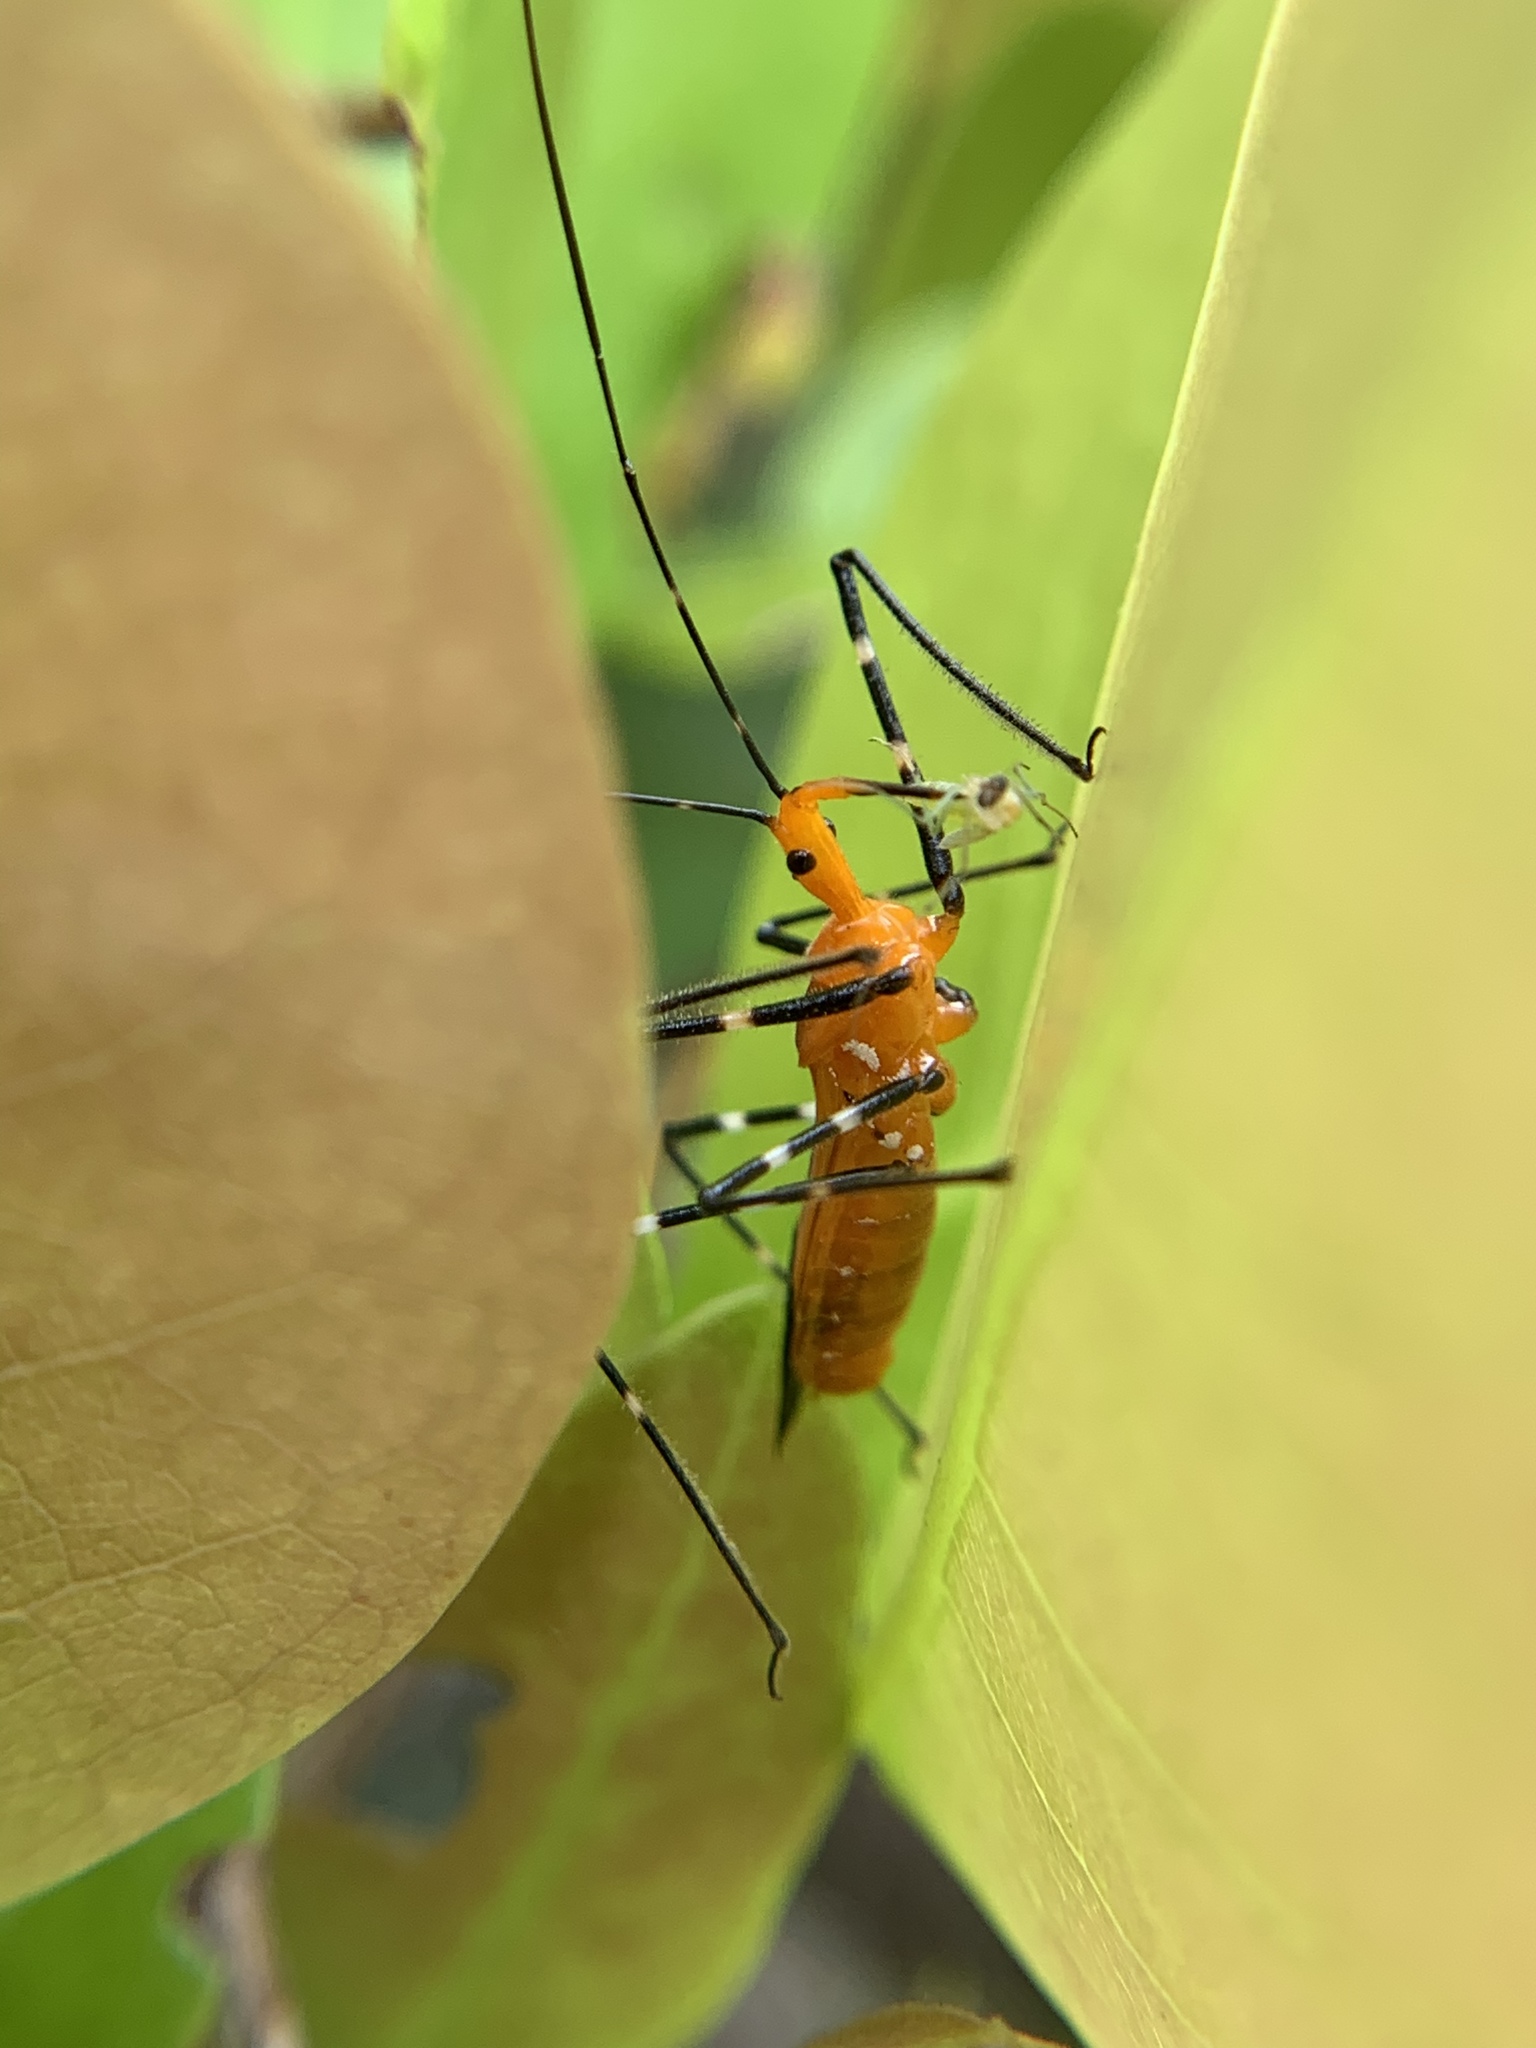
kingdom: Animalia
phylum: Arthropoda
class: Insecta
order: Hemiptera
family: Reduviidae
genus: Zelus
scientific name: Zelus longipes
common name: Milkweed assassin bug
